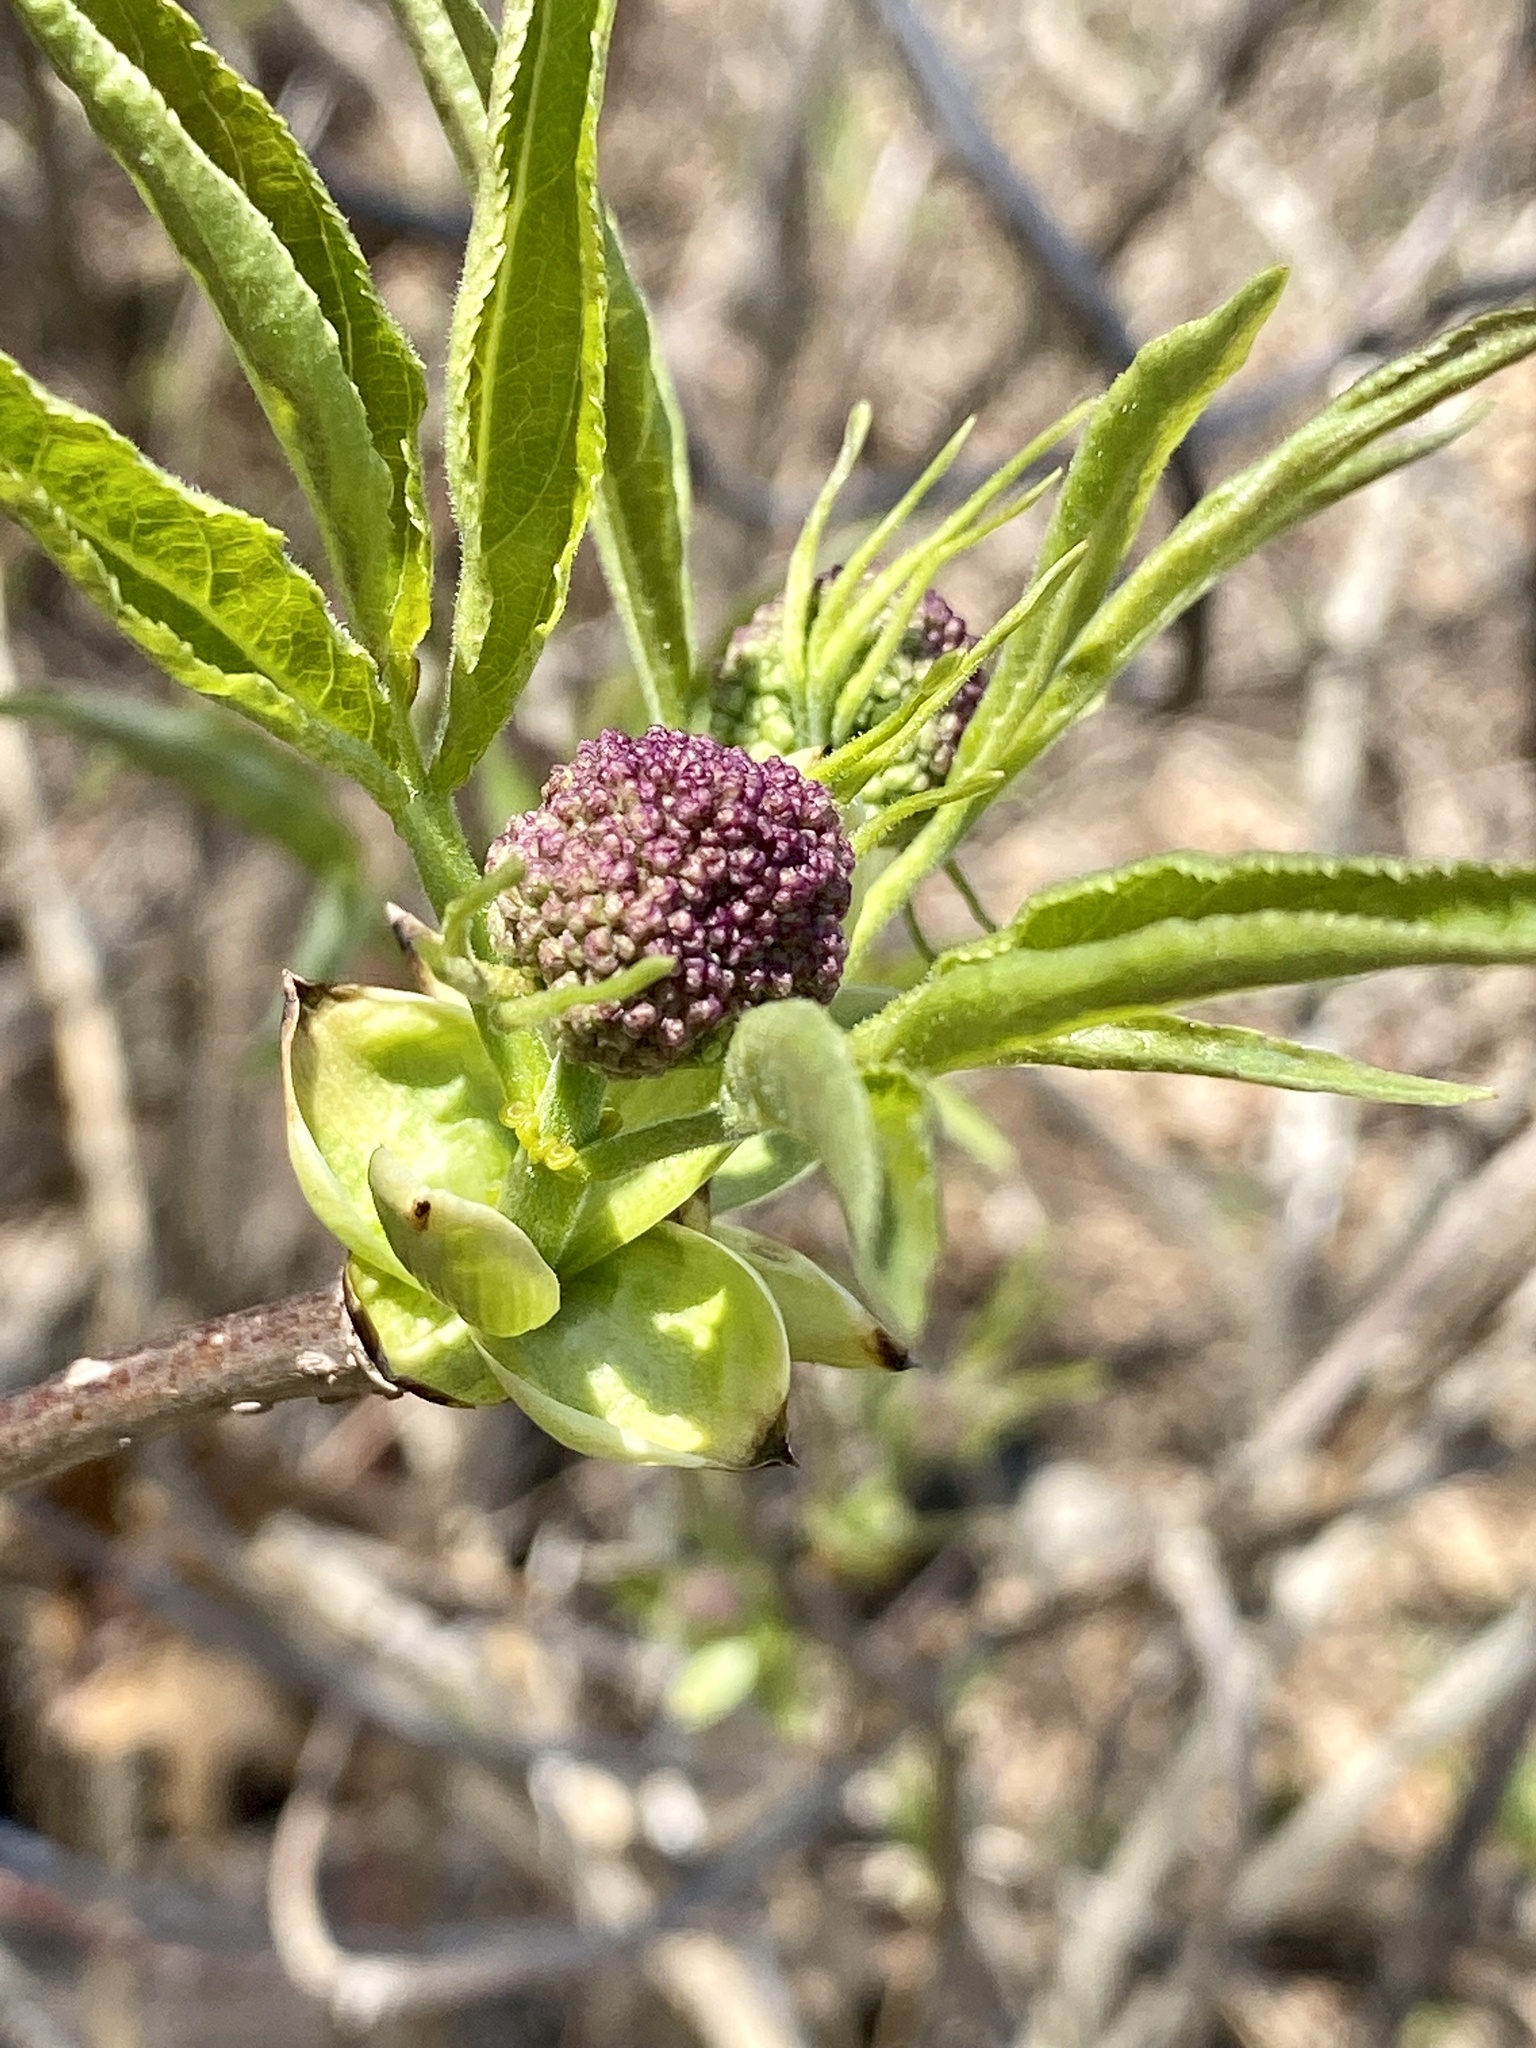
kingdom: Plantae
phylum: Tracheophyta
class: Magnoliopsida
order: Dipsacales
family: Viburnaceae
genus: Sambucus
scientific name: Sambucus racemosa
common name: Red-berried elder
